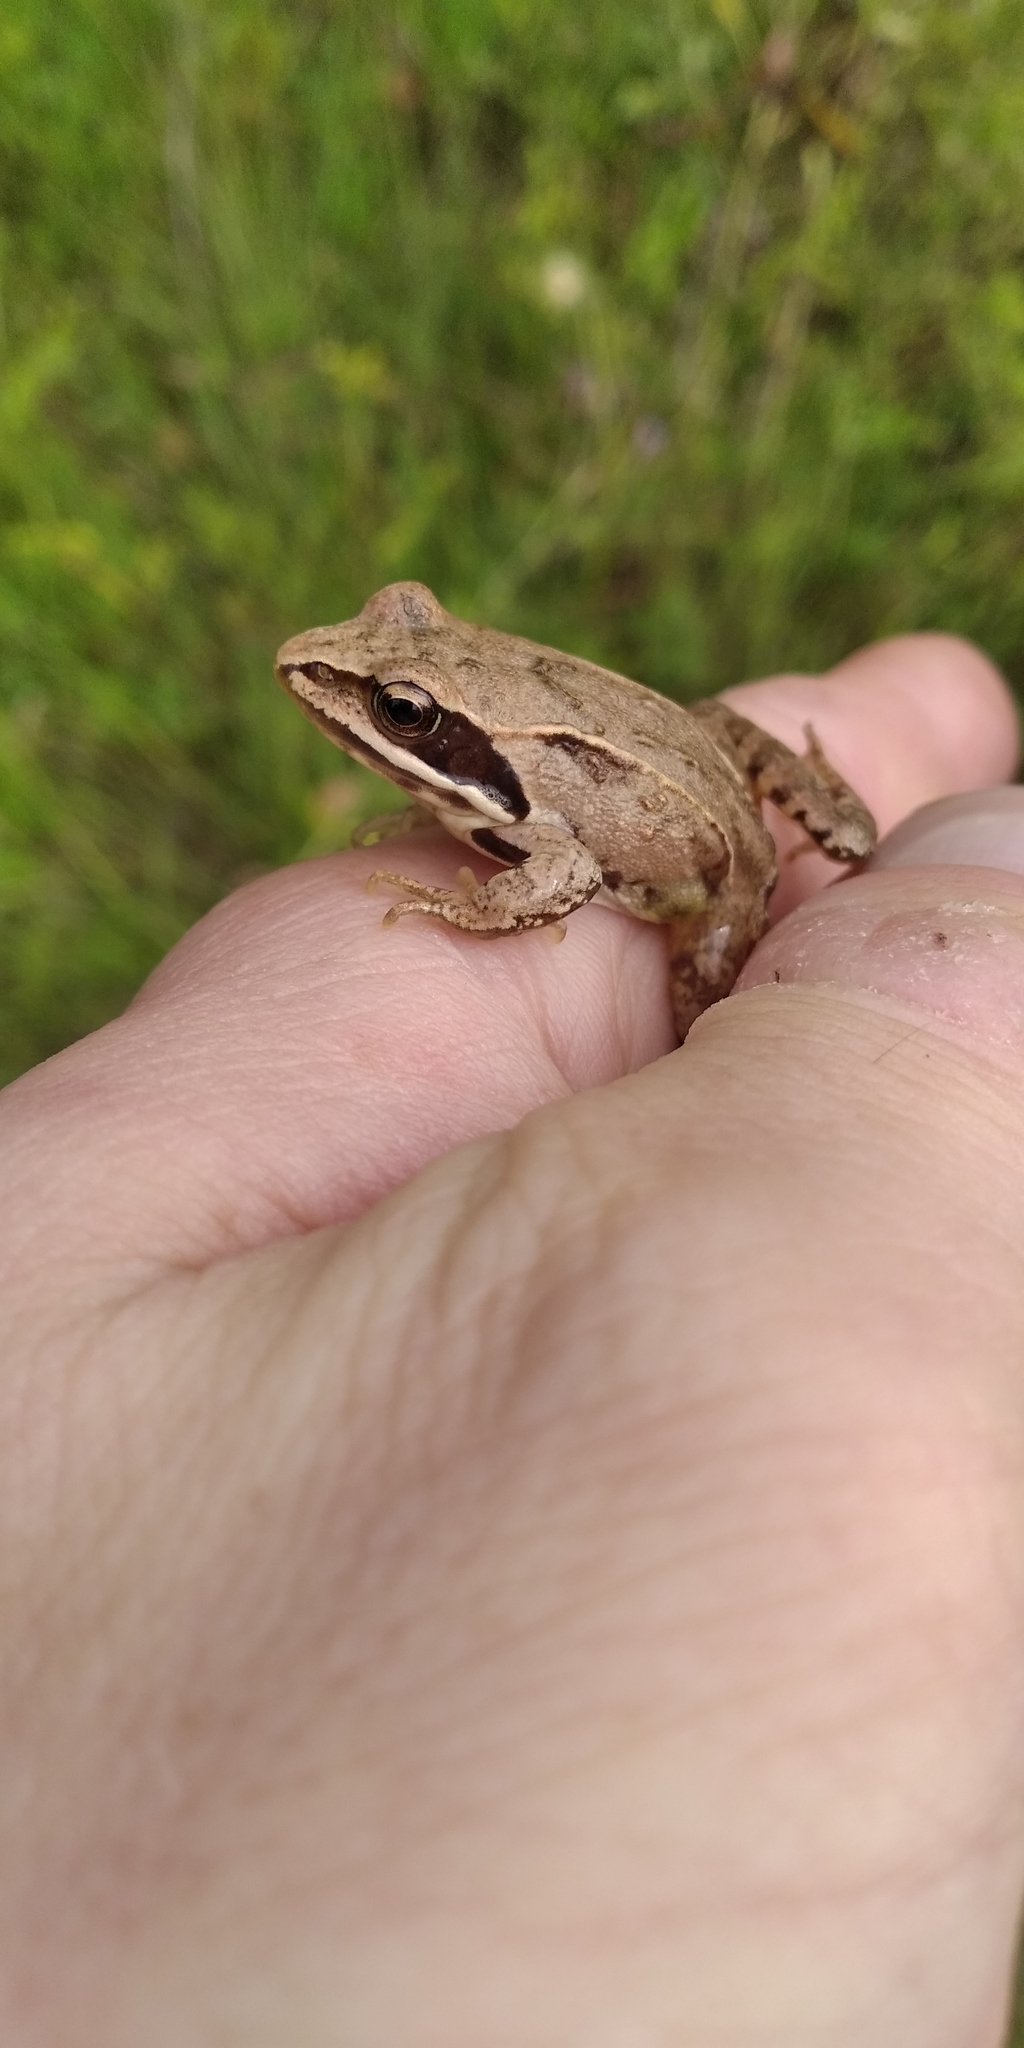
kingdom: Animalia
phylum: Chordata
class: Amphibia
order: Anura
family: Ranidae
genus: Rana
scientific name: Rana arvalis
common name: Moor frog
